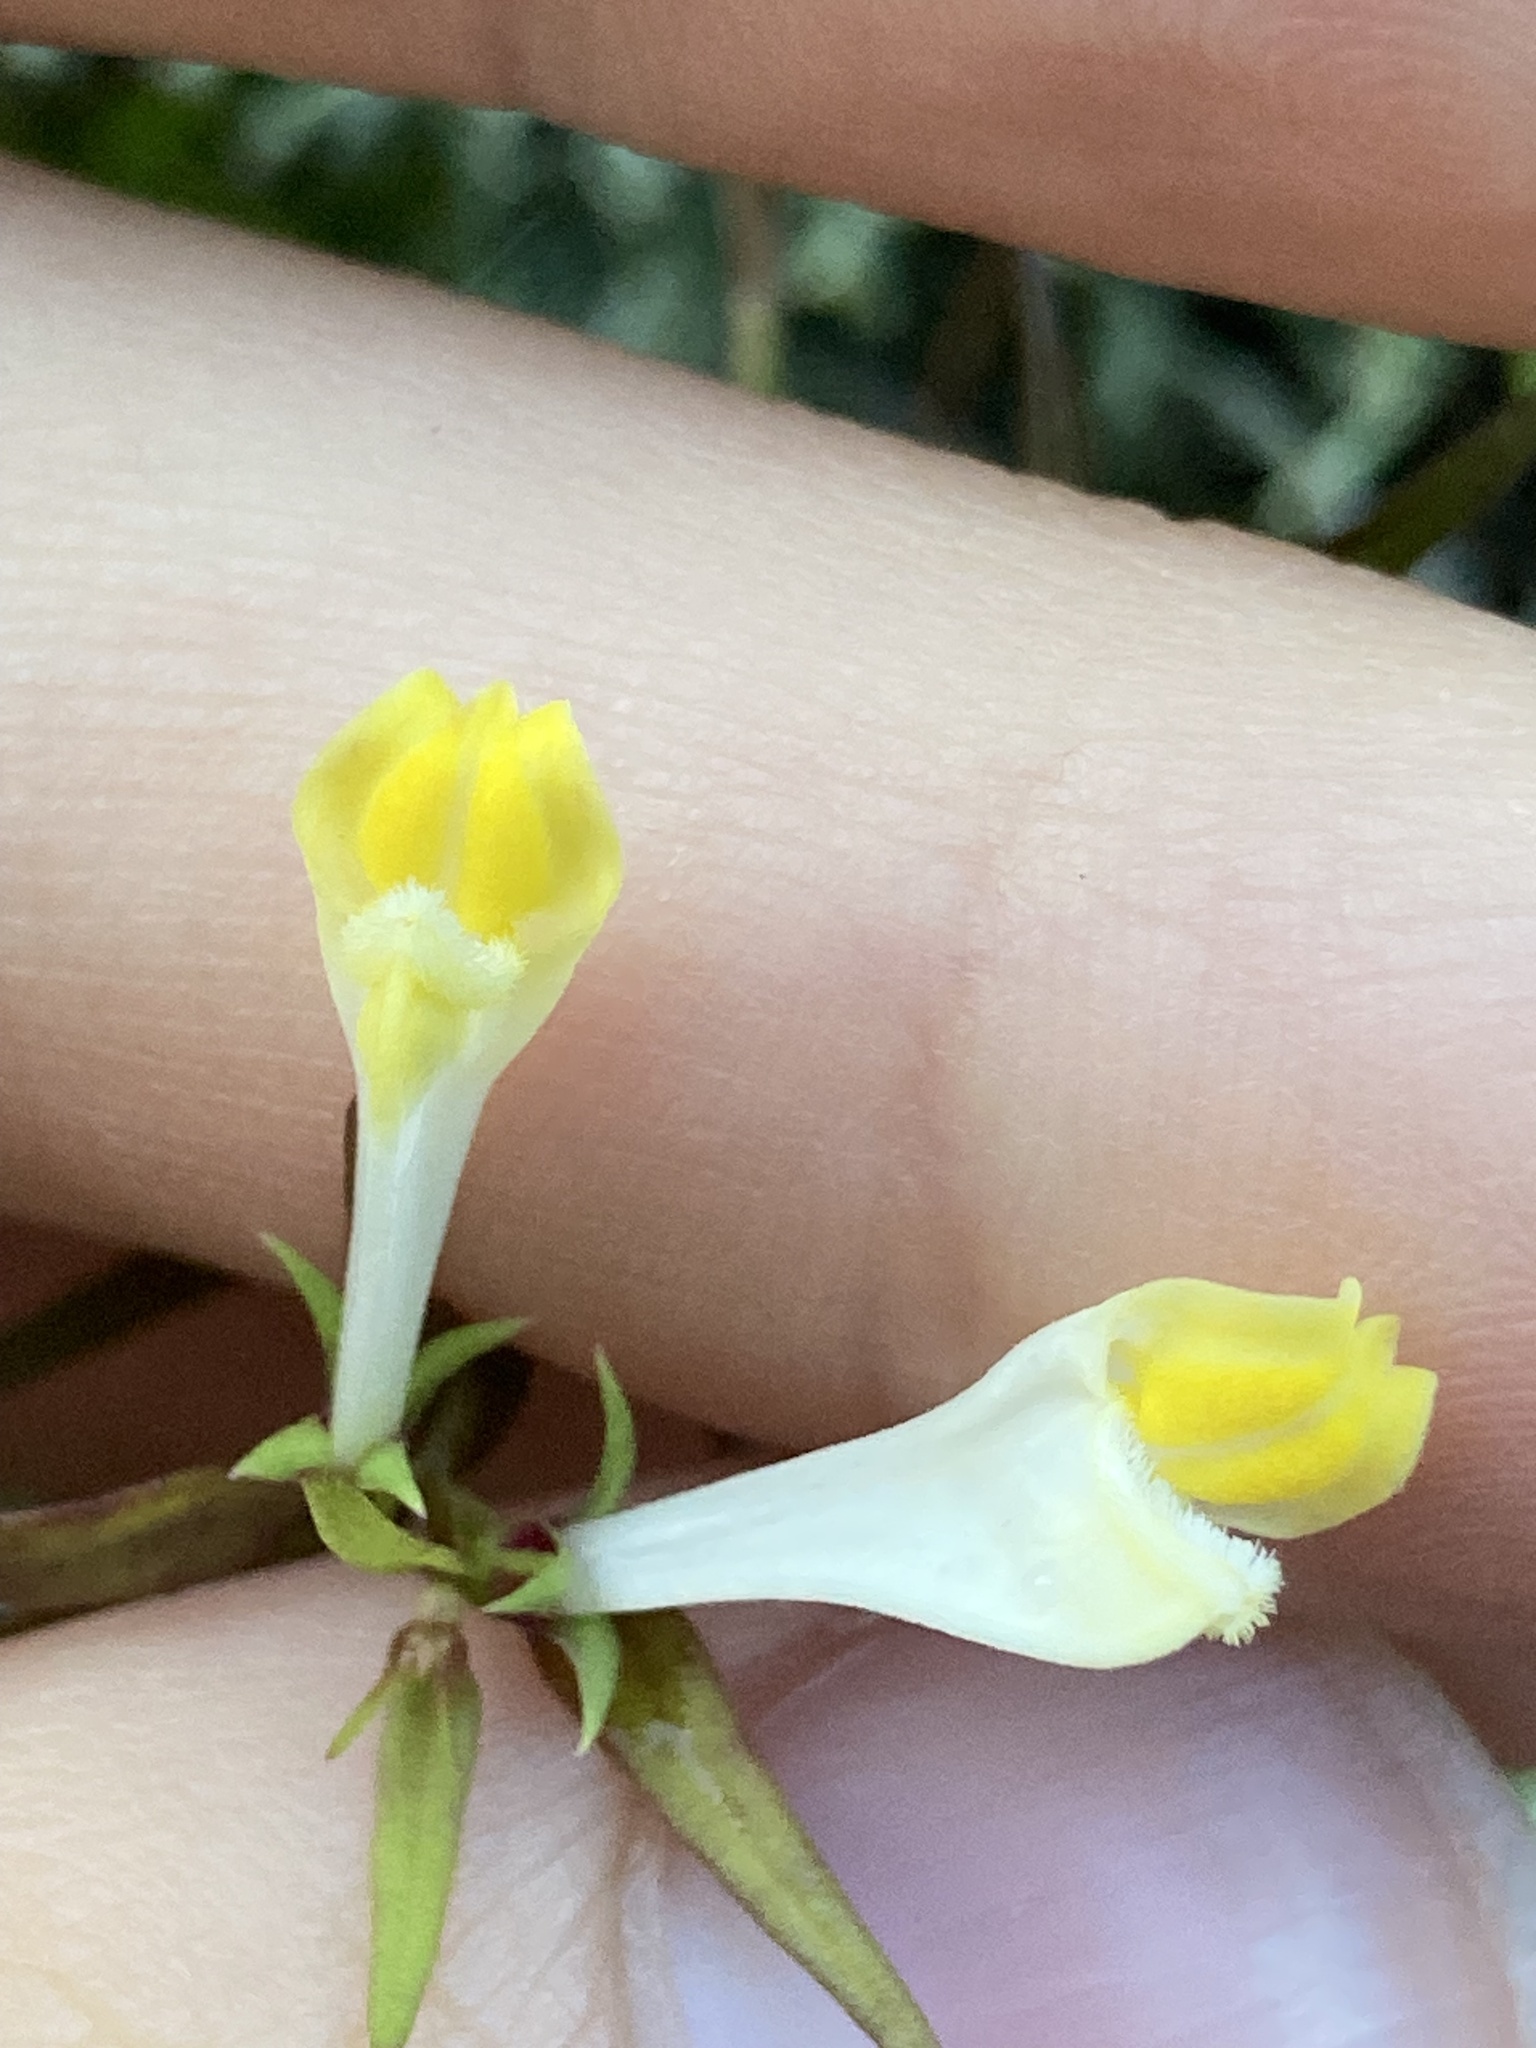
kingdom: Plantae
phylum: Tracheophyta
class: Magnoliopsida
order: Lamiales
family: Orobanchaceae
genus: Melampyrum
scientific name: Melampyrum pratense
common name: Common cow-wheat
